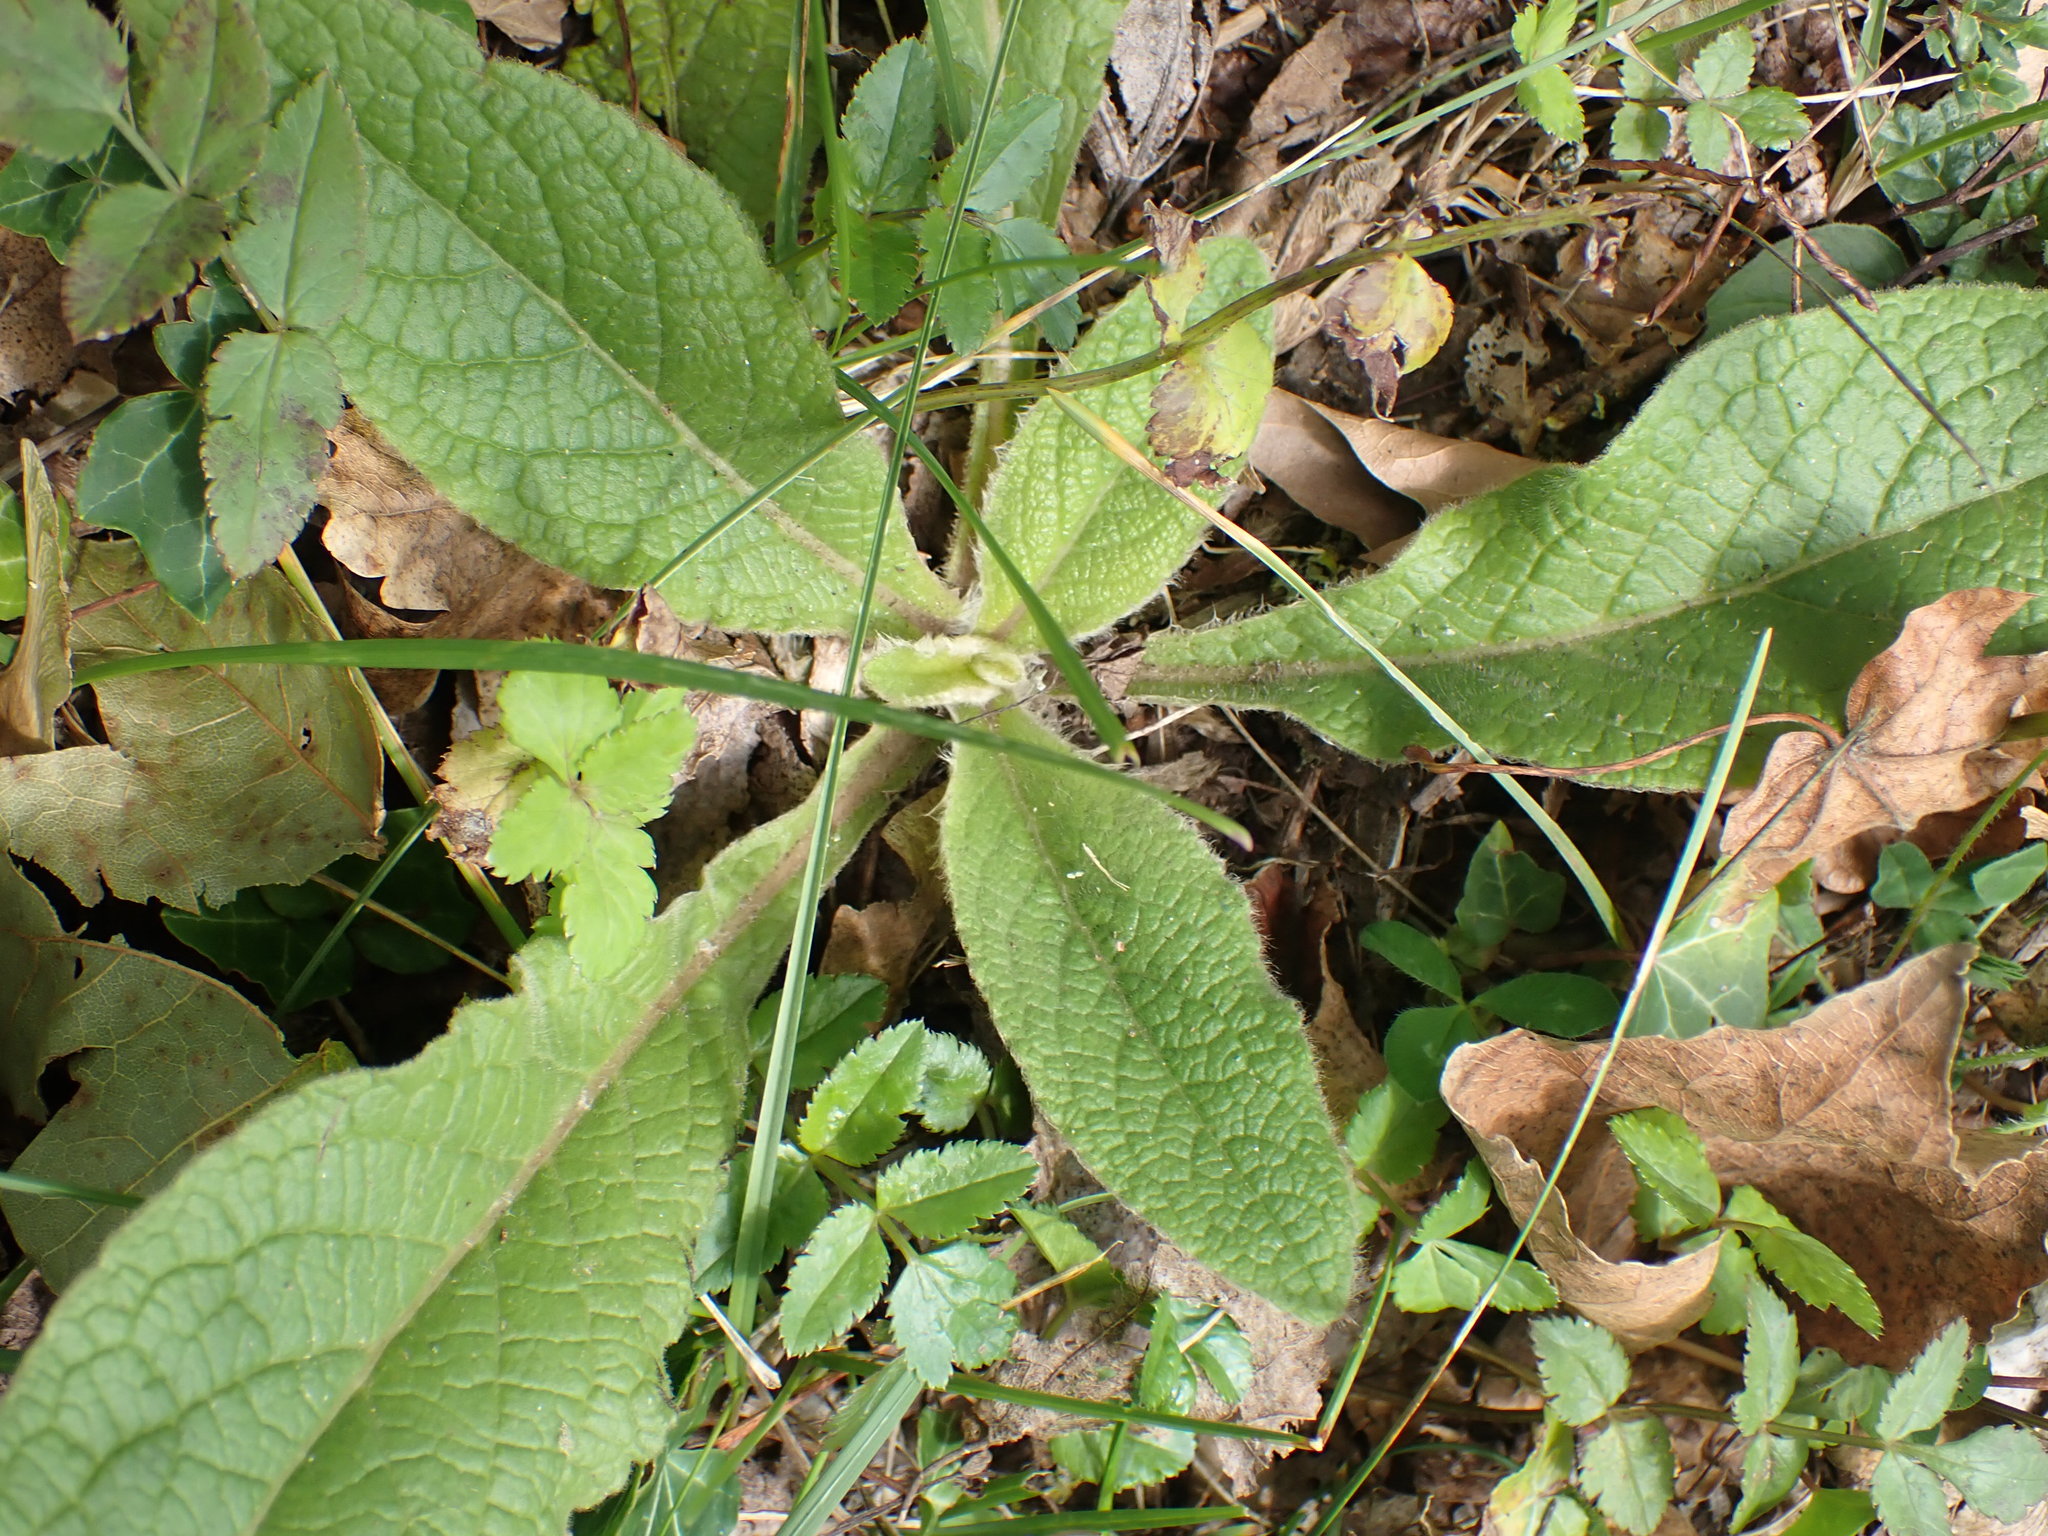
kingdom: Plantae
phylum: Tracheophyta
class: Magnoliopsida
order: Asterales
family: Asteraceae
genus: Pentanema
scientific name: Pentanema squarrosum
